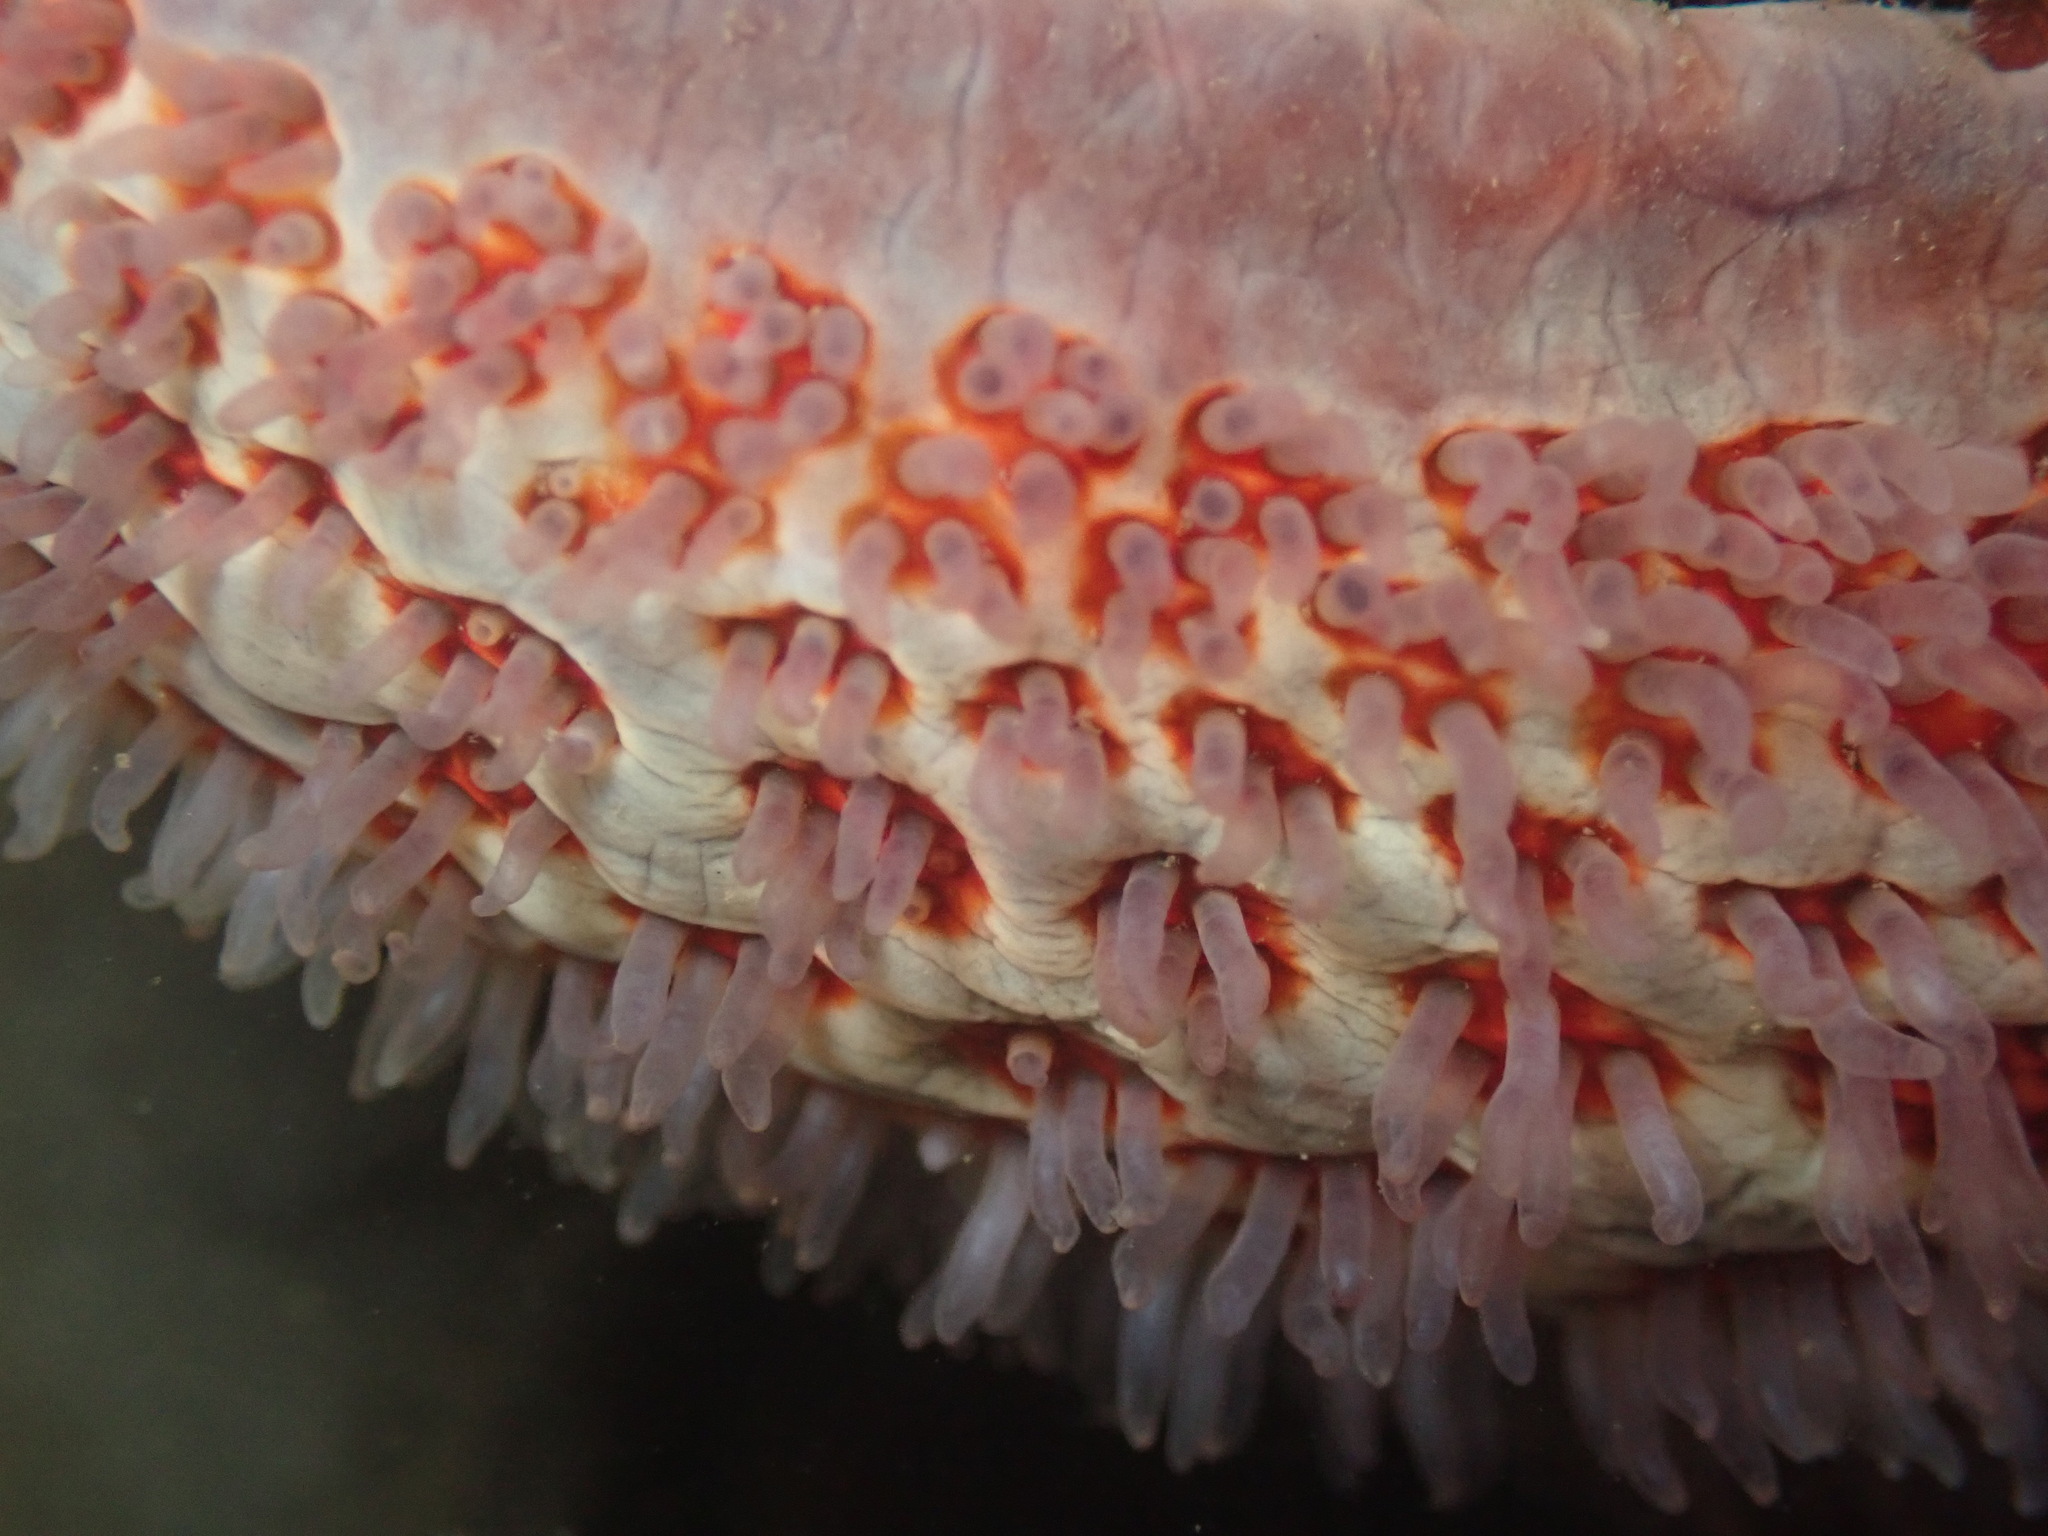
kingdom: Animalia
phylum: Echinodermata
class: Asteroidea
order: Valvatida
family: Asteropseidae
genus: Dermasterias
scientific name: Dermasterias imbricata
